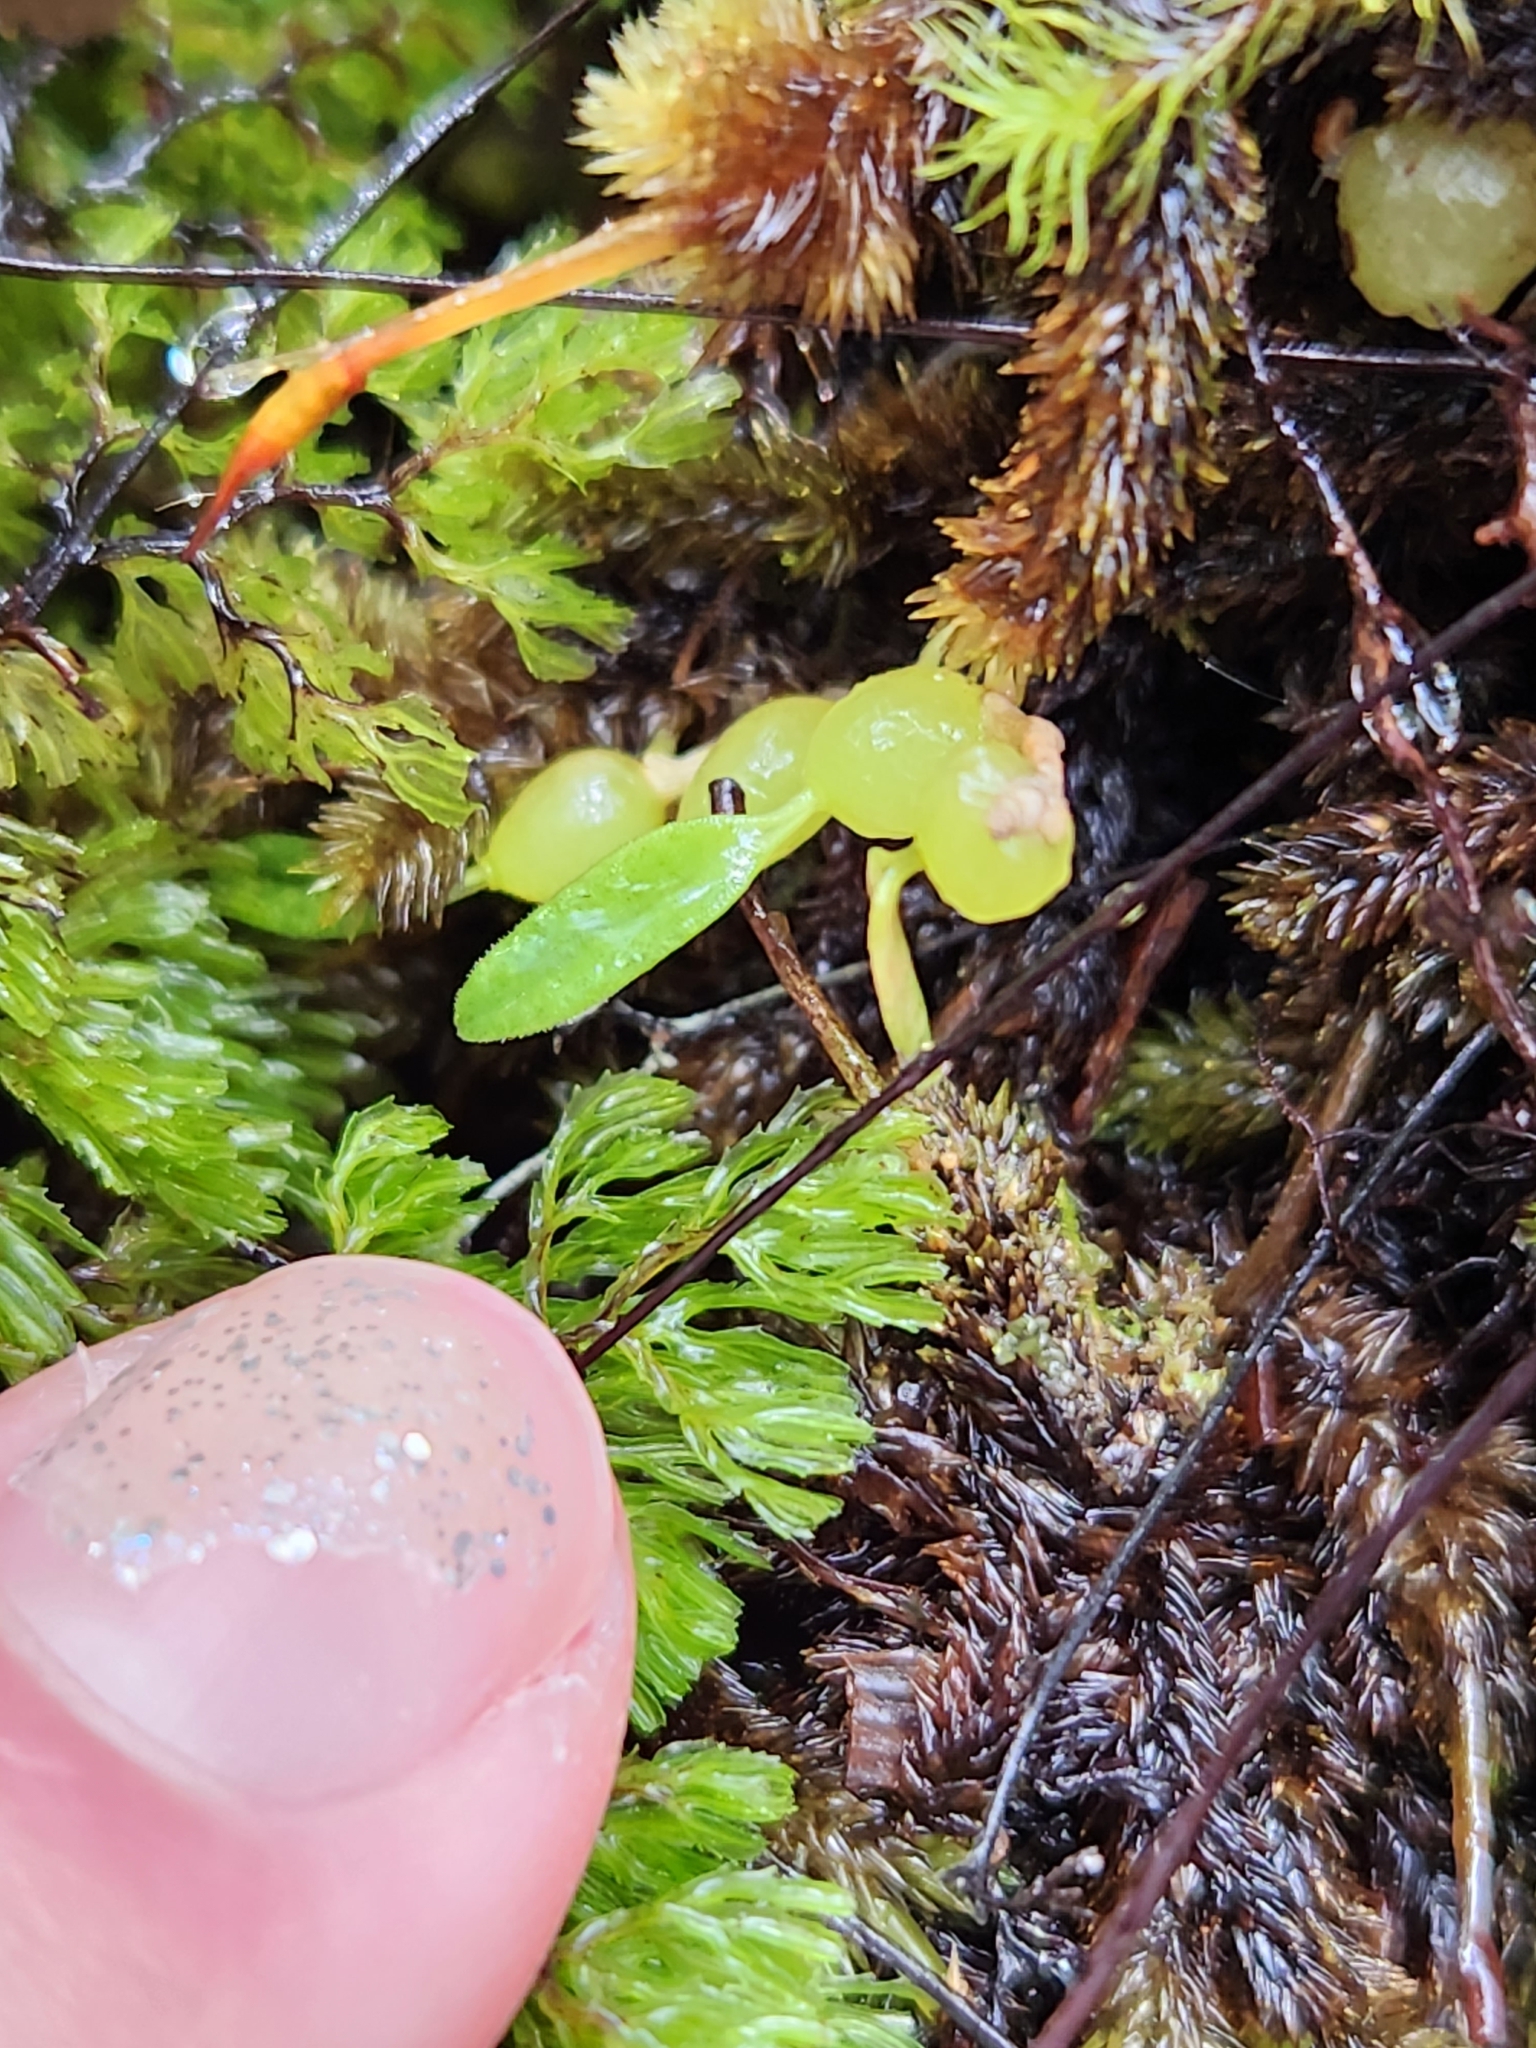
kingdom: Plantae
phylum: Tracheophyta
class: Liliopsida
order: Asparagales
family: Orchidaceae
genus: Bulbophyllum
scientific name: Bulbophyllum pygmaeum
